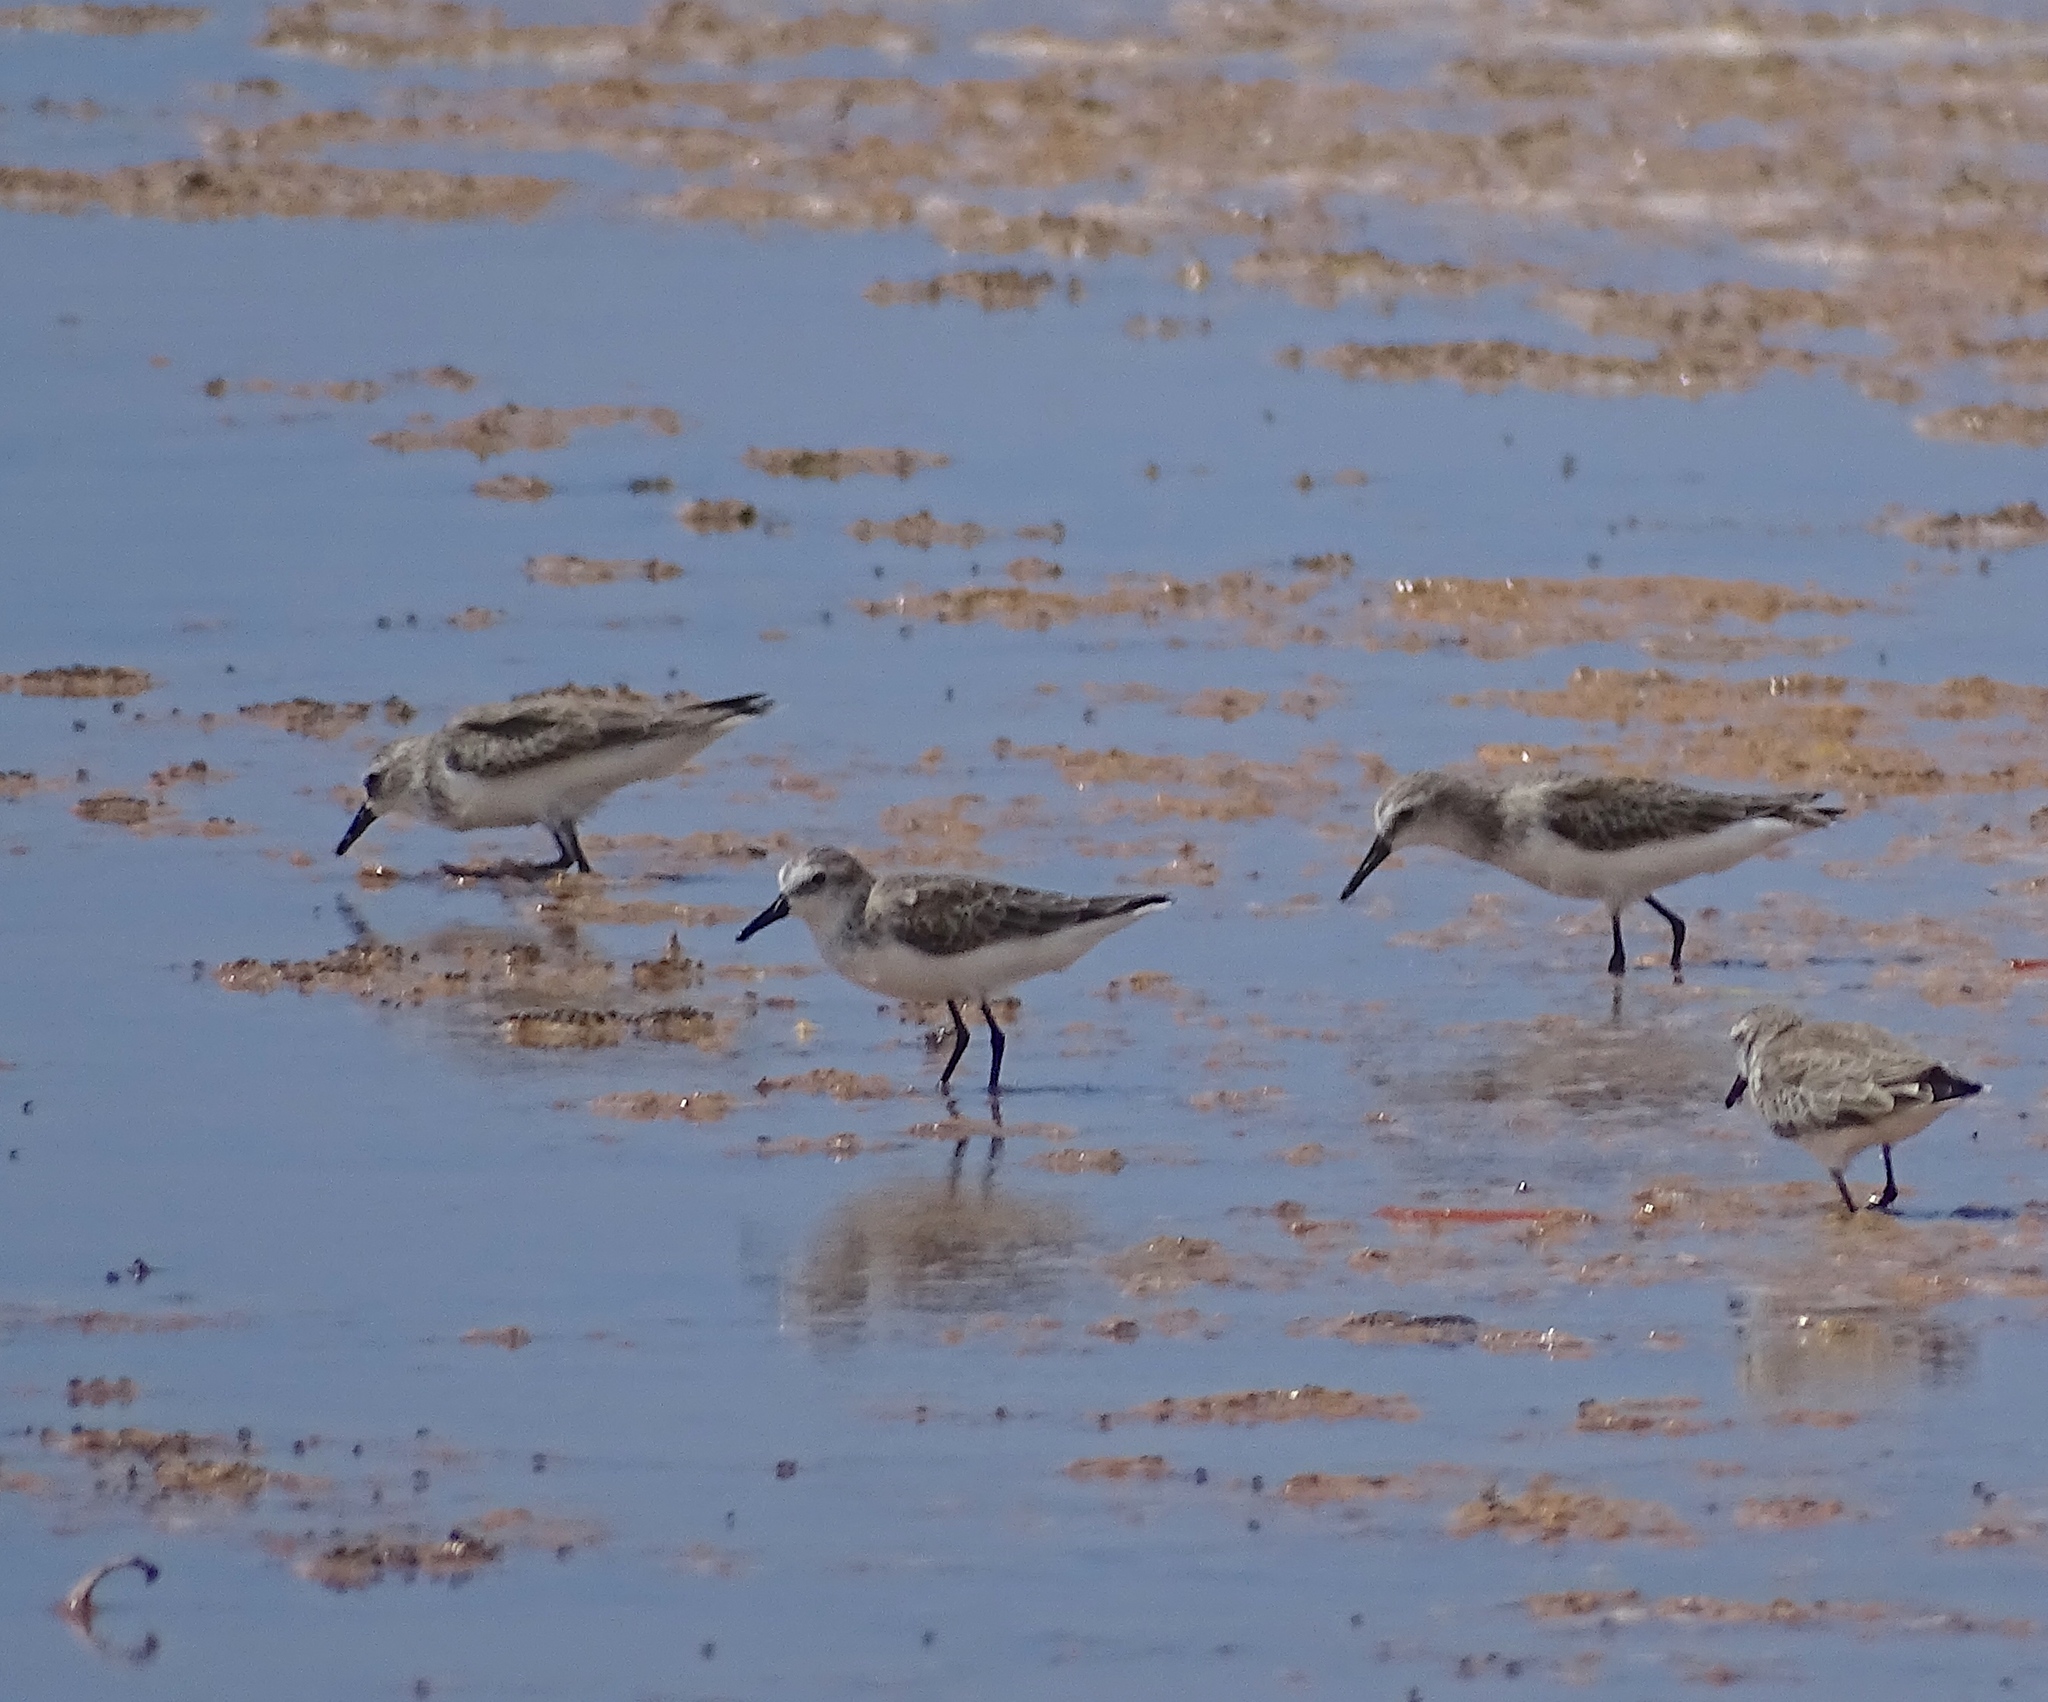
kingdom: Animalia
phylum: Chordata
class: Aves
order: Charadriiformes
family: Scolopacidae
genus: Calidris
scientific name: Calidris pusilla
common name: Semipalmated sandpiper
